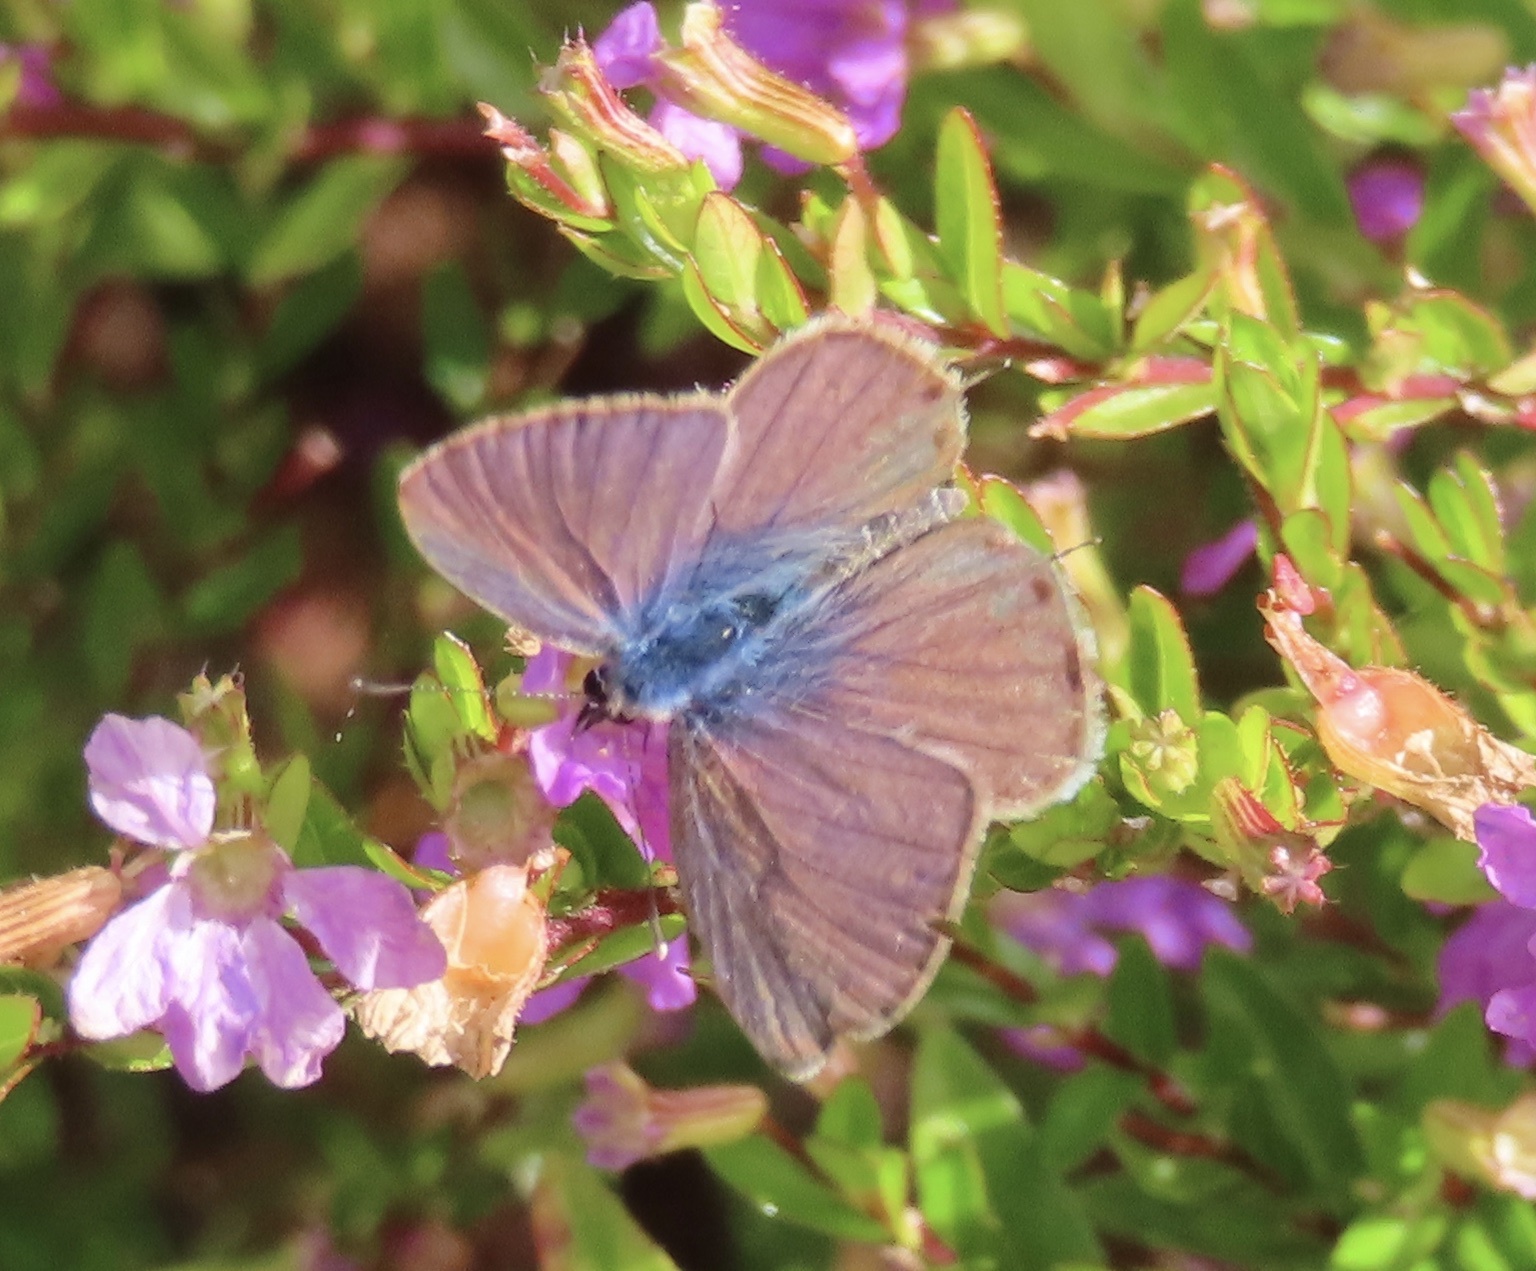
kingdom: Animalia
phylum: Arthropoda
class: Insecta
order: Lepidoptera
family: Lycaenidae
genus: Leptotes
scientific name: Leptotes pirithous
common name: Lang's short-tailed blue
